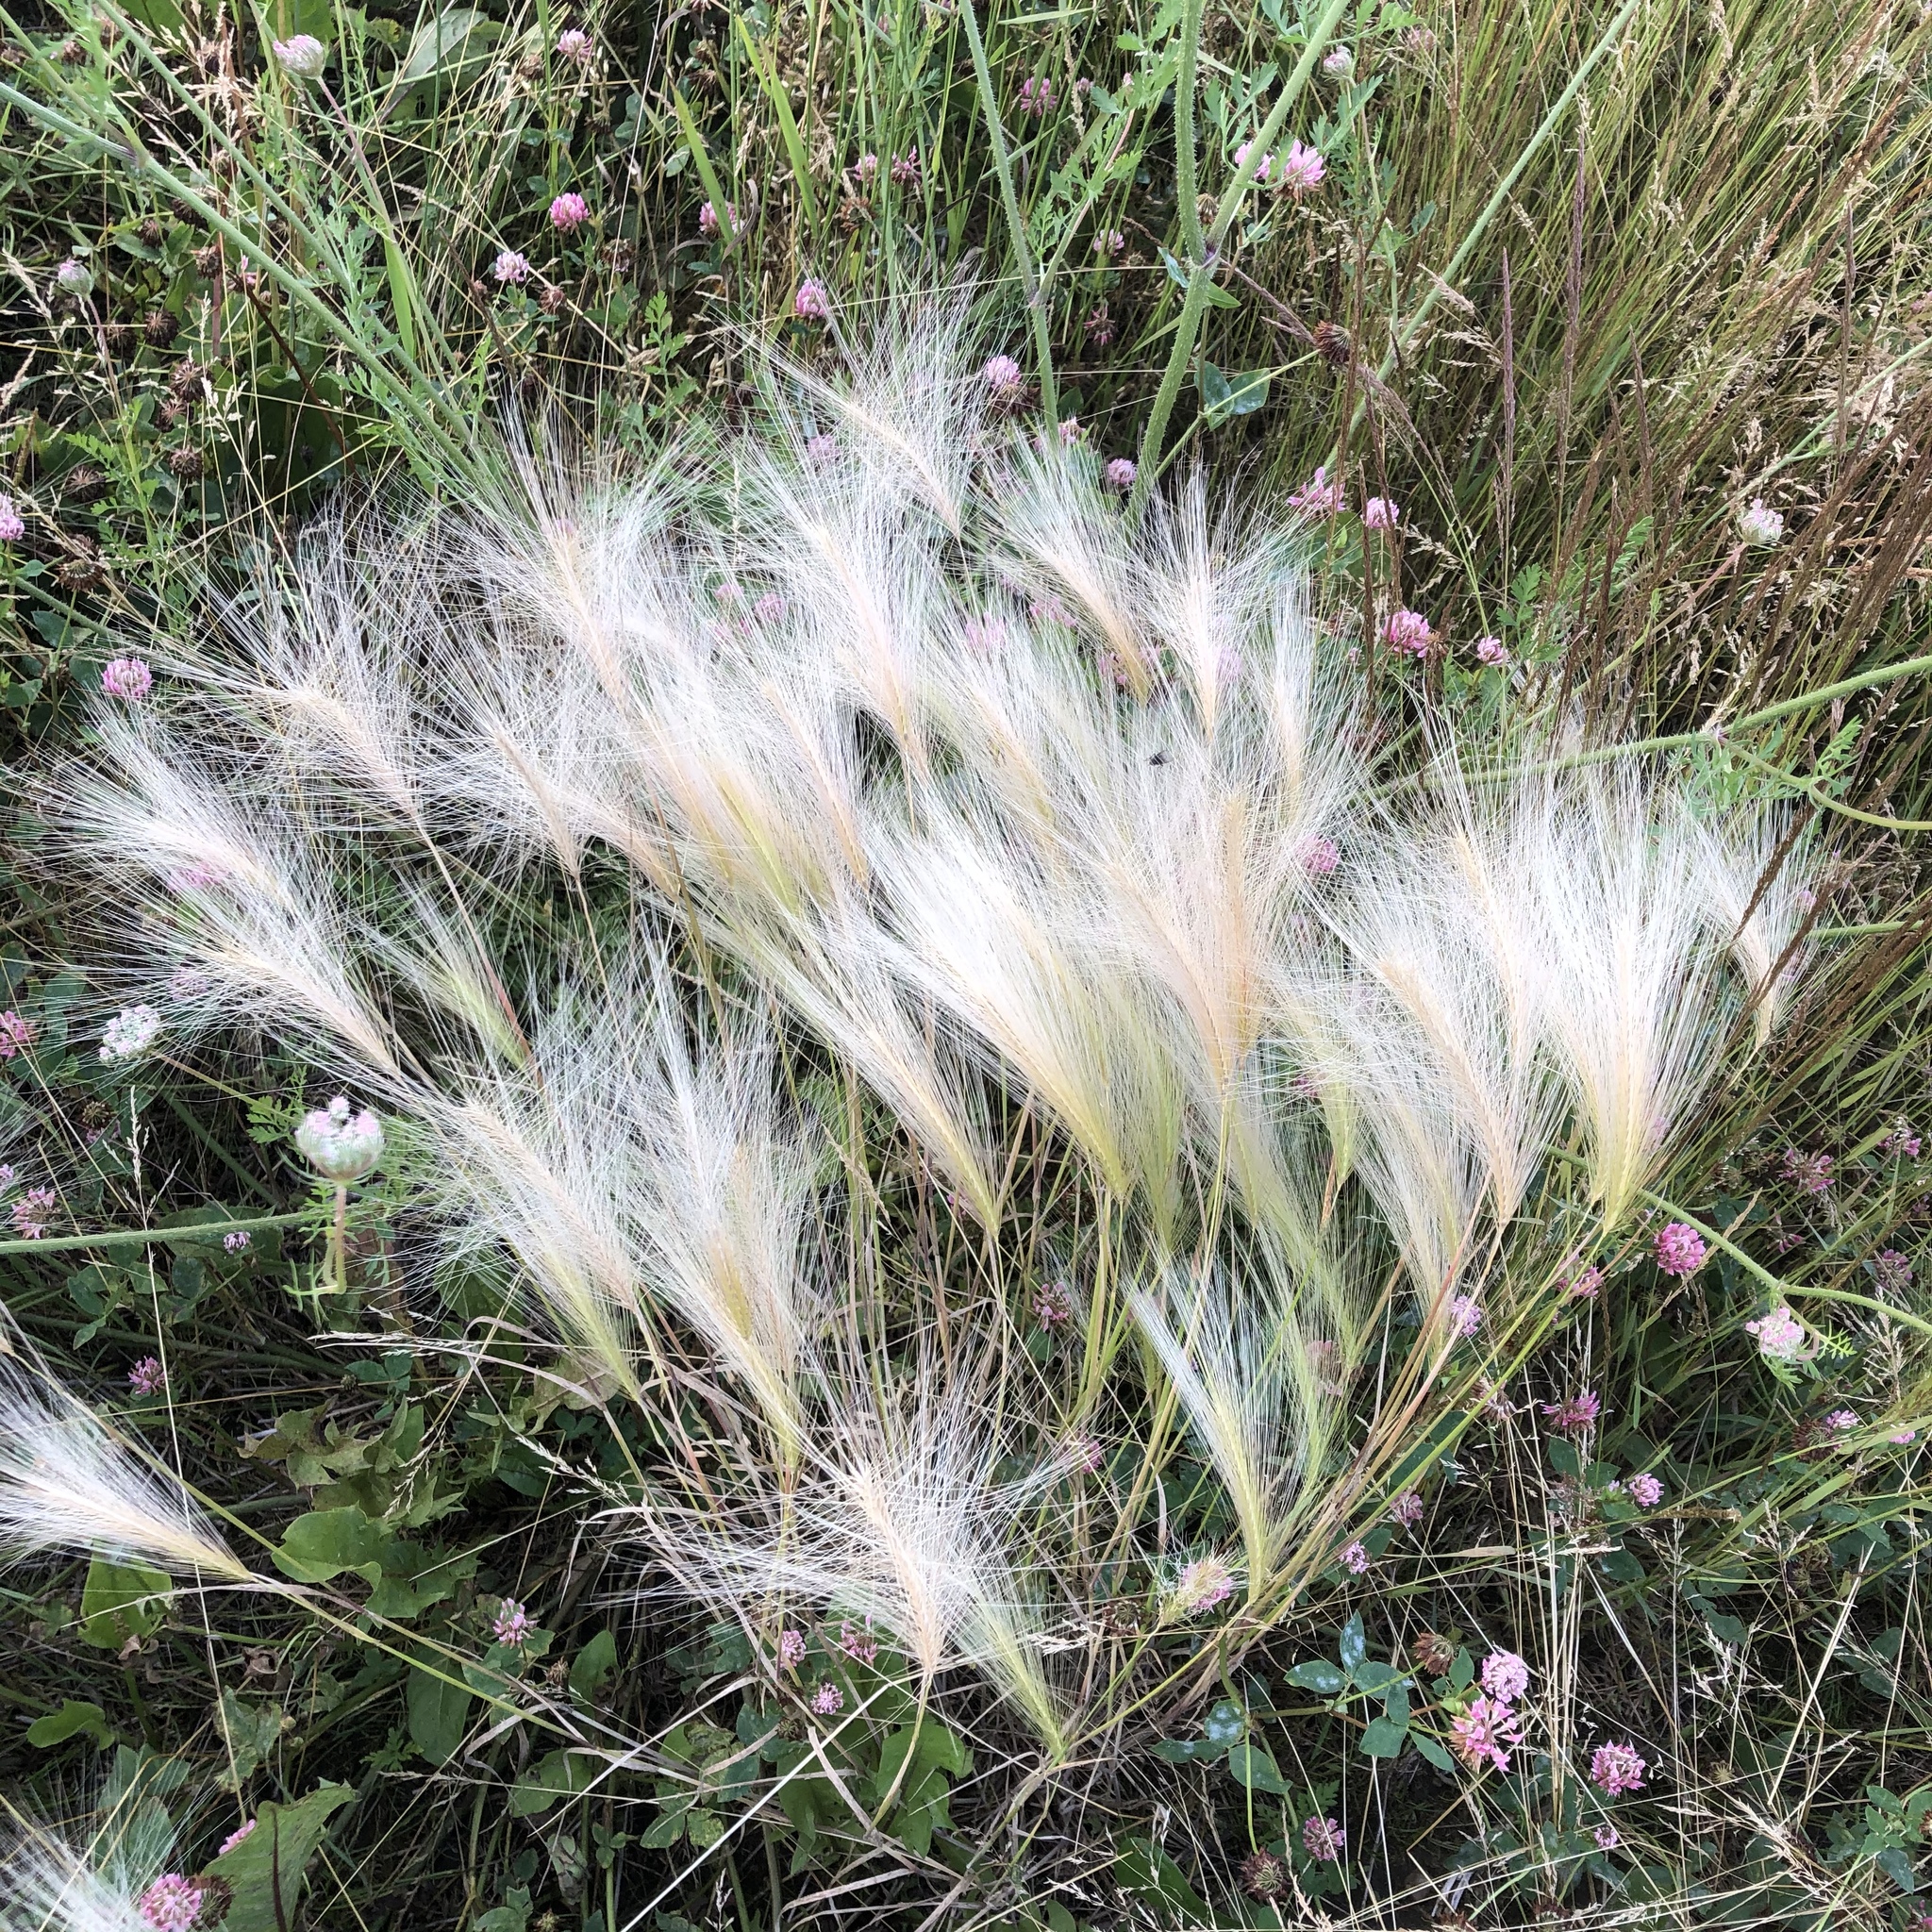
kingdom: Plantae
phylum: Tracheophyta
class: Liliopsida
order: Poales
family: Poaceae
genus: Hordeum
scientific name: Hordeum jubatum
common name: Foxtail barley
